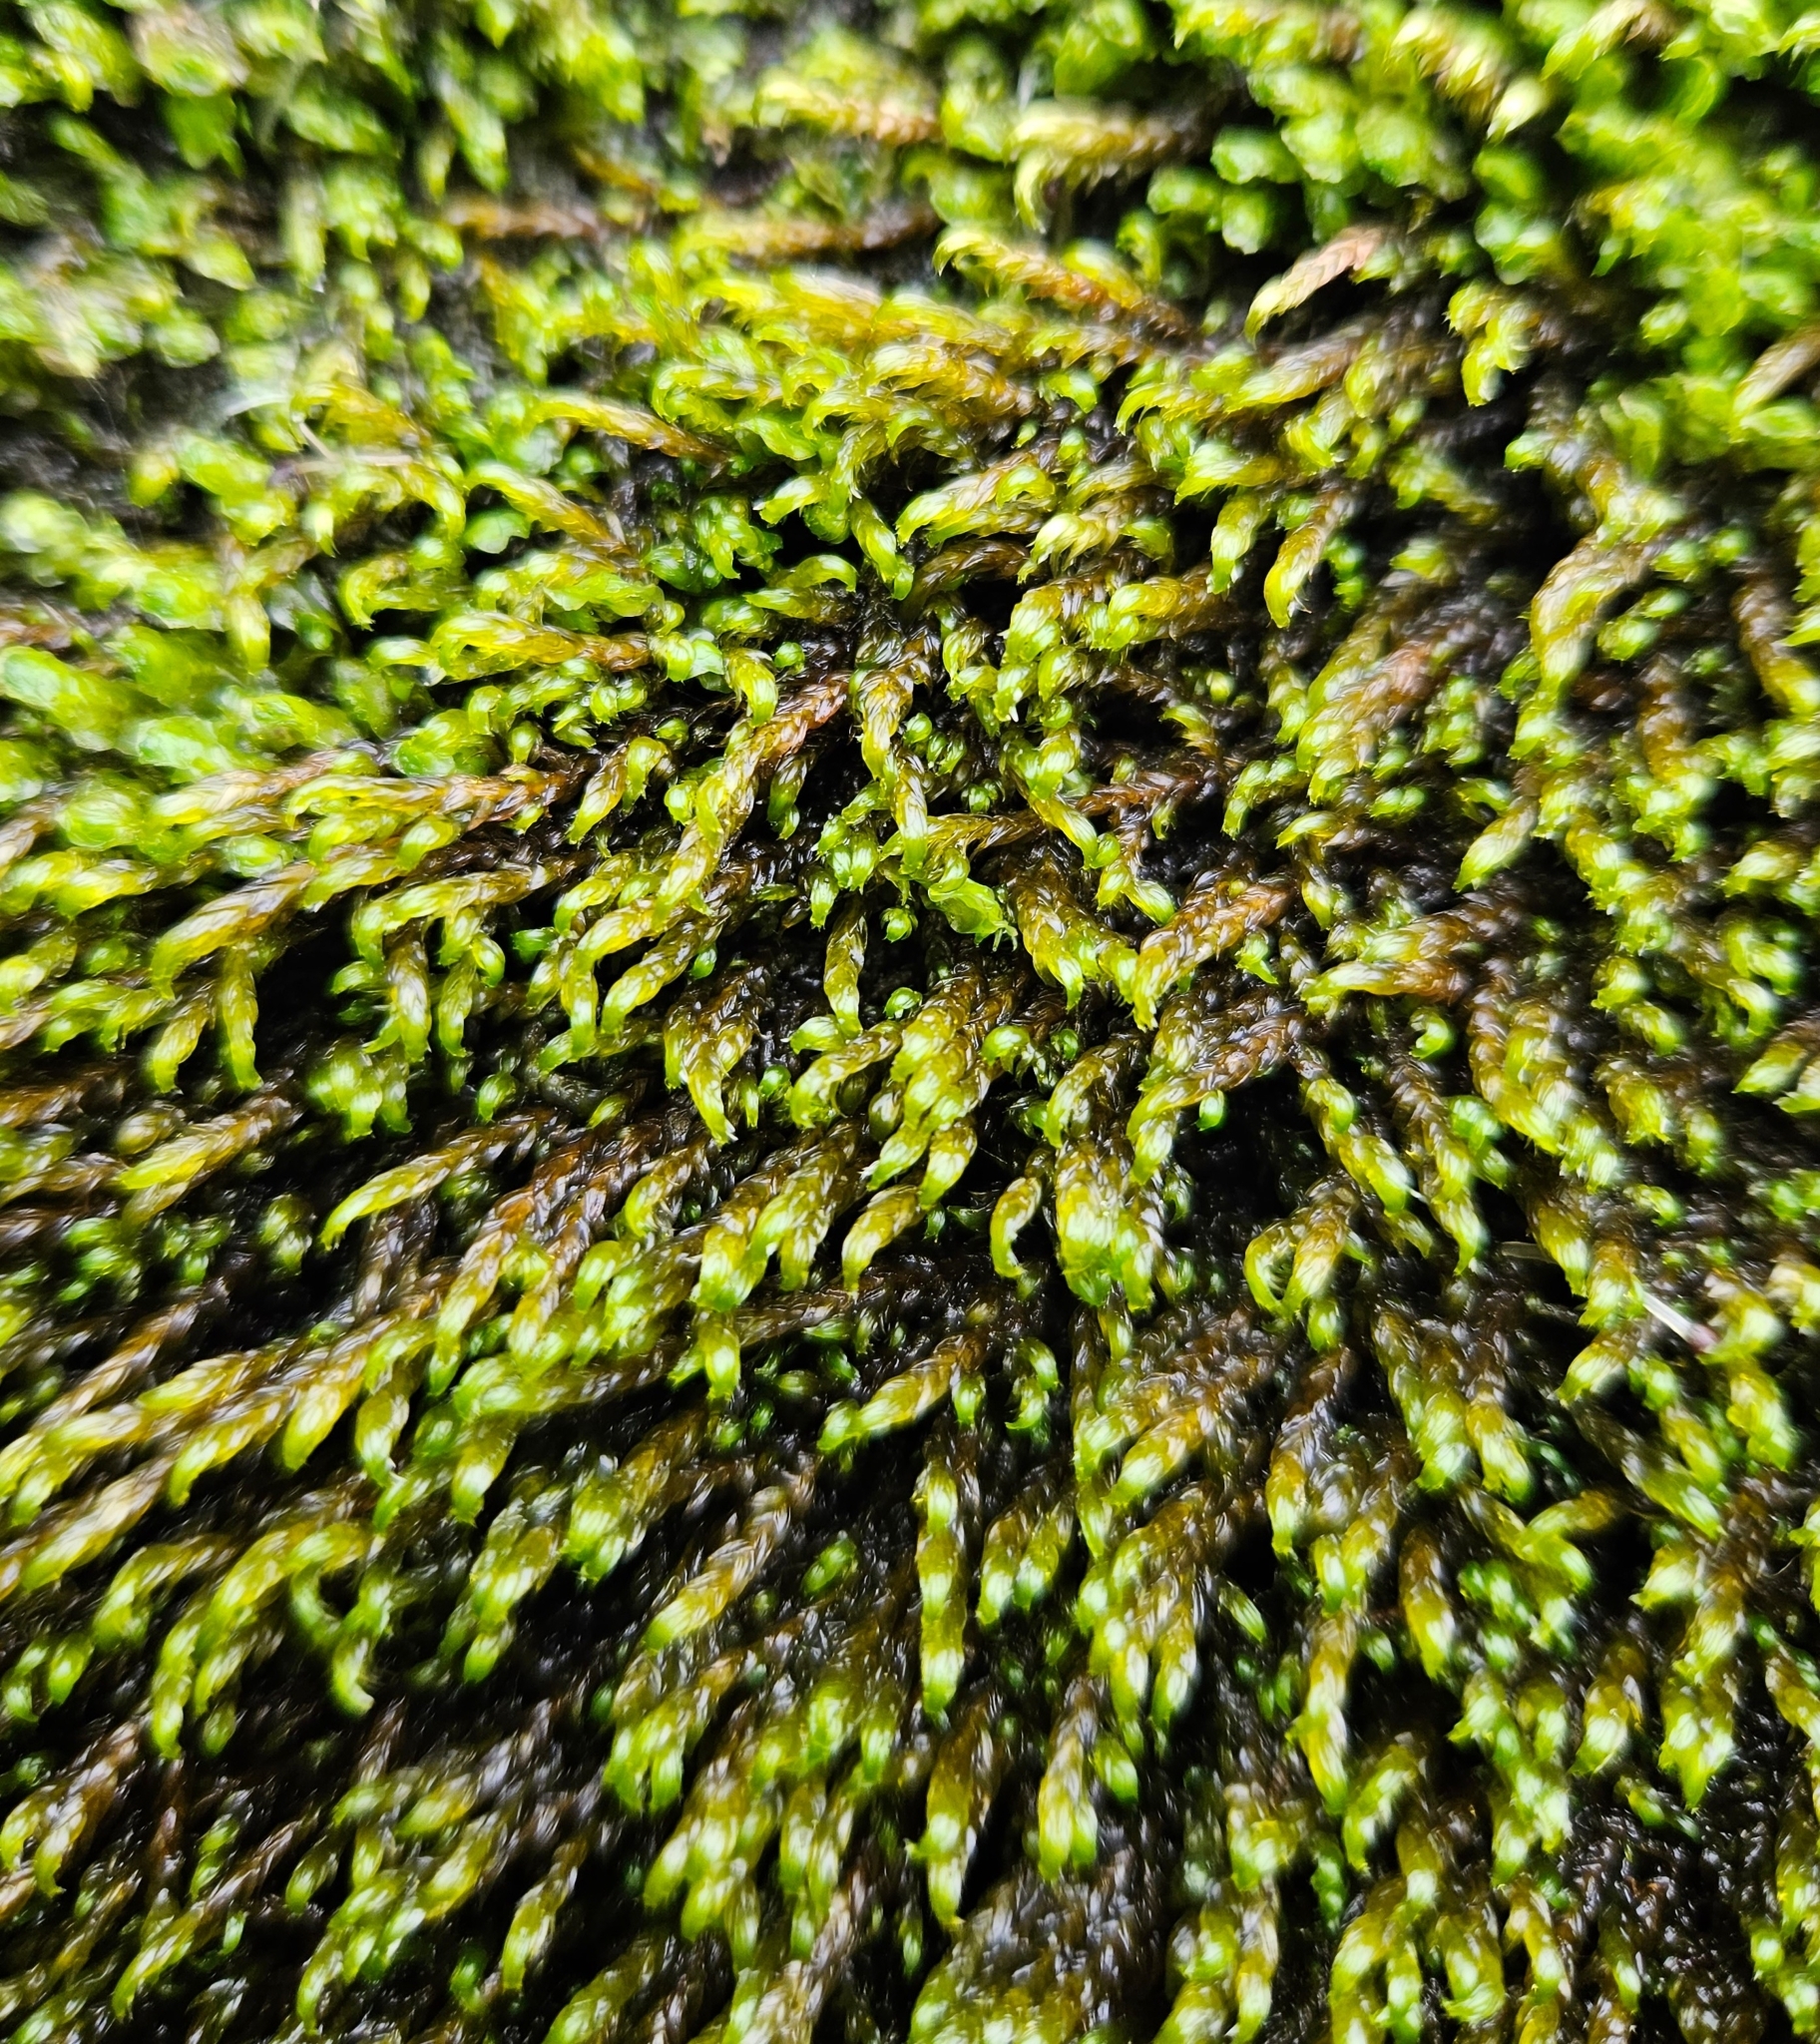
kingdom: Plantae
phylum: Bryophyta
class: Bryopsida
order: Hypnales
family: Scorpidiaceae
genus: Hygrohypnella
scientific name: Hygrohypnella ochracea
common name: Hygrohypnum moss
